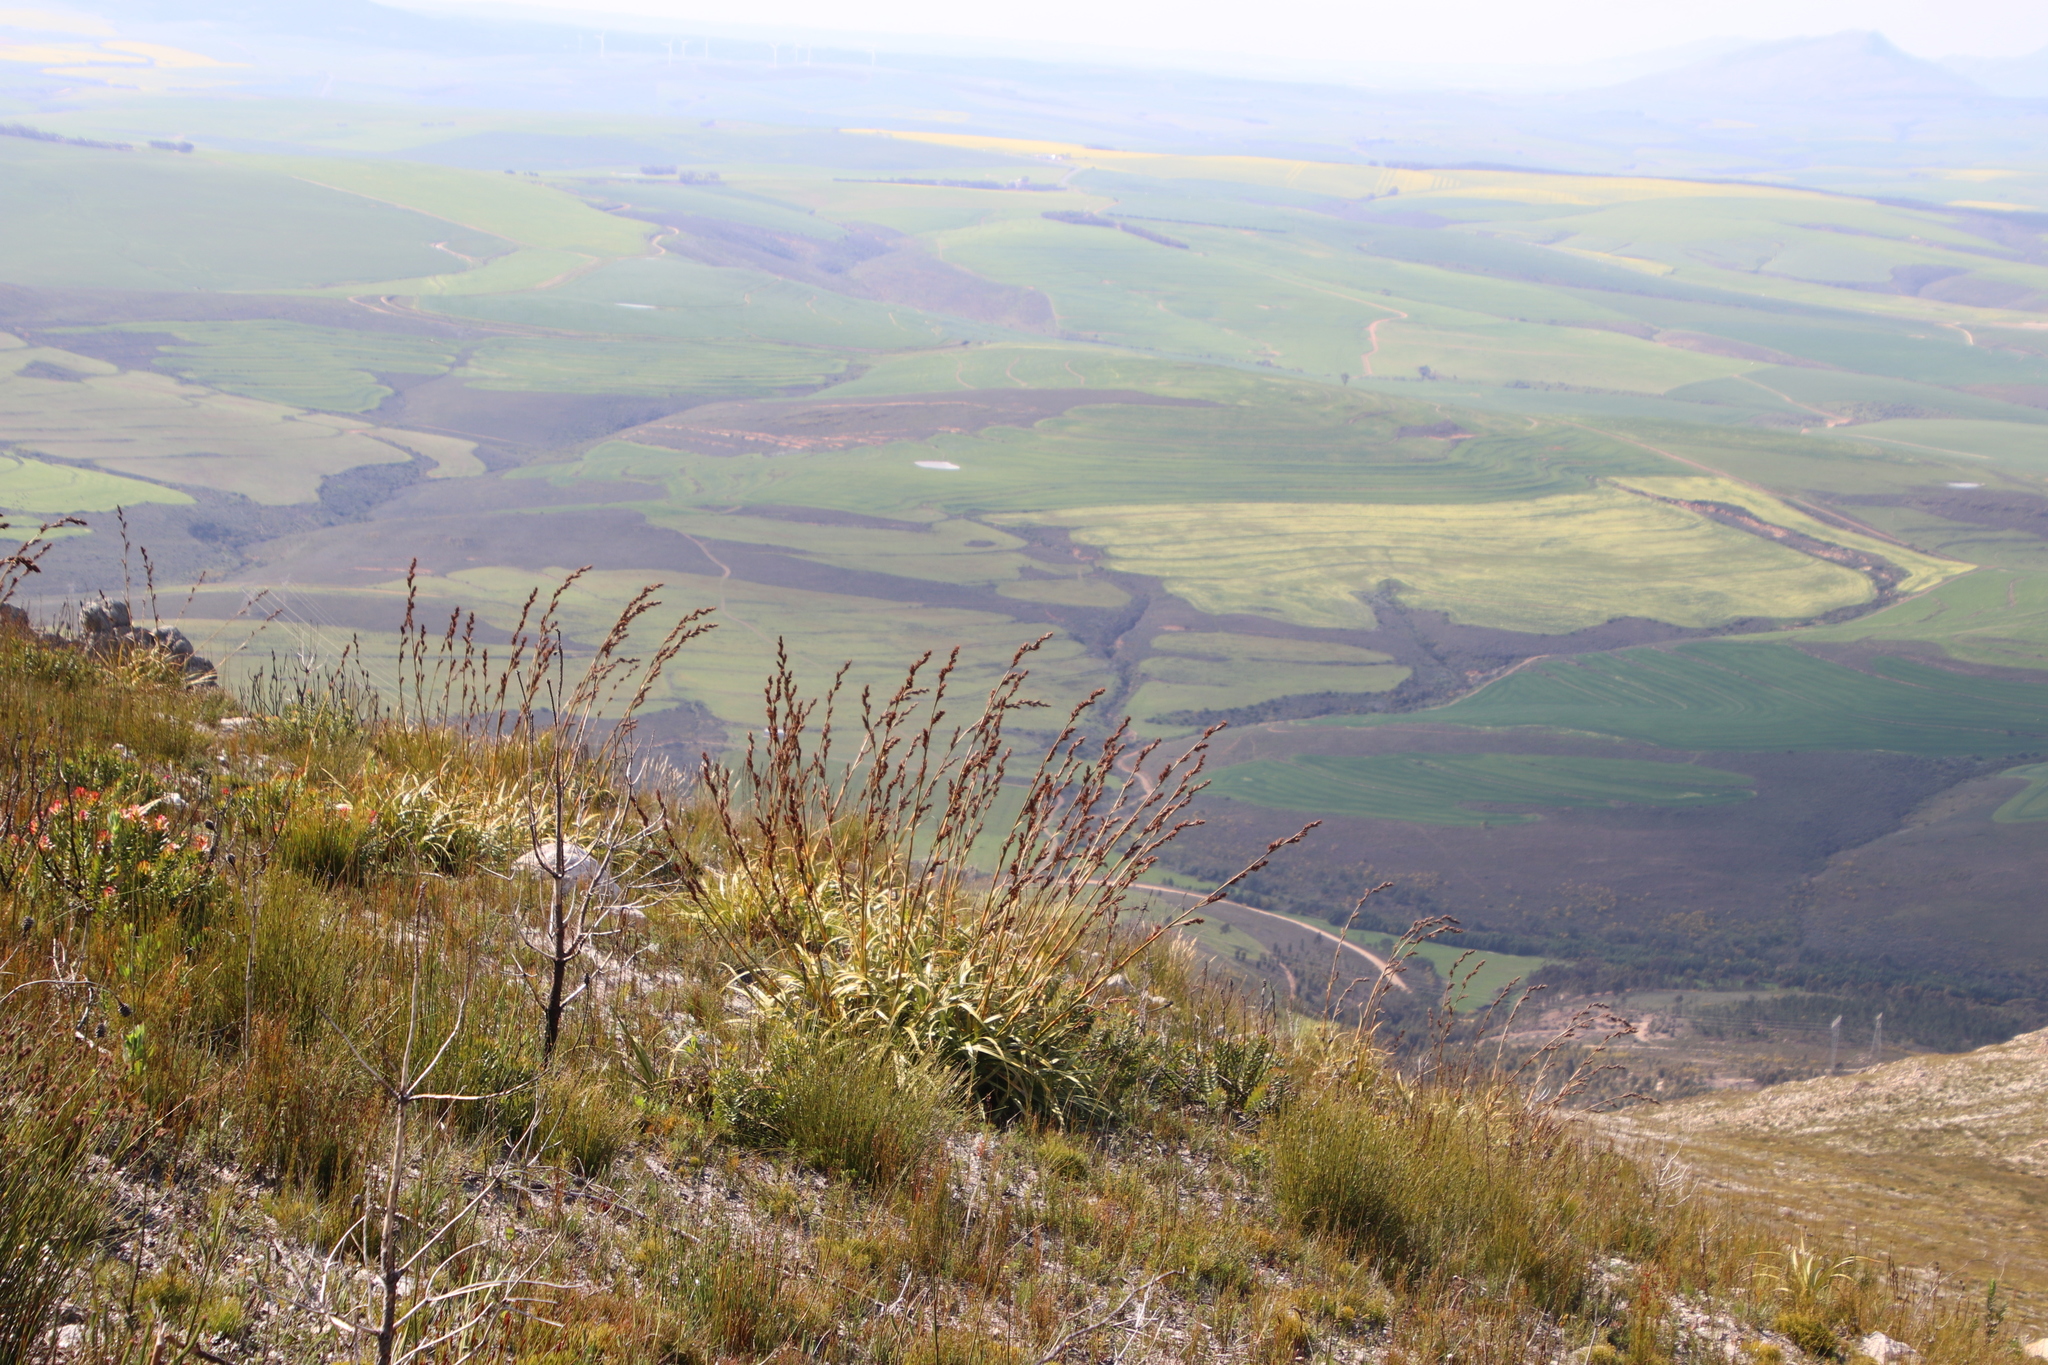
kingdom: Plantae
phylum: Tracheophyta
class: Liliopsida
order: Poales
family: Cyperaceae
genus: Tetraria
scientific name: Tetraria thermalis
